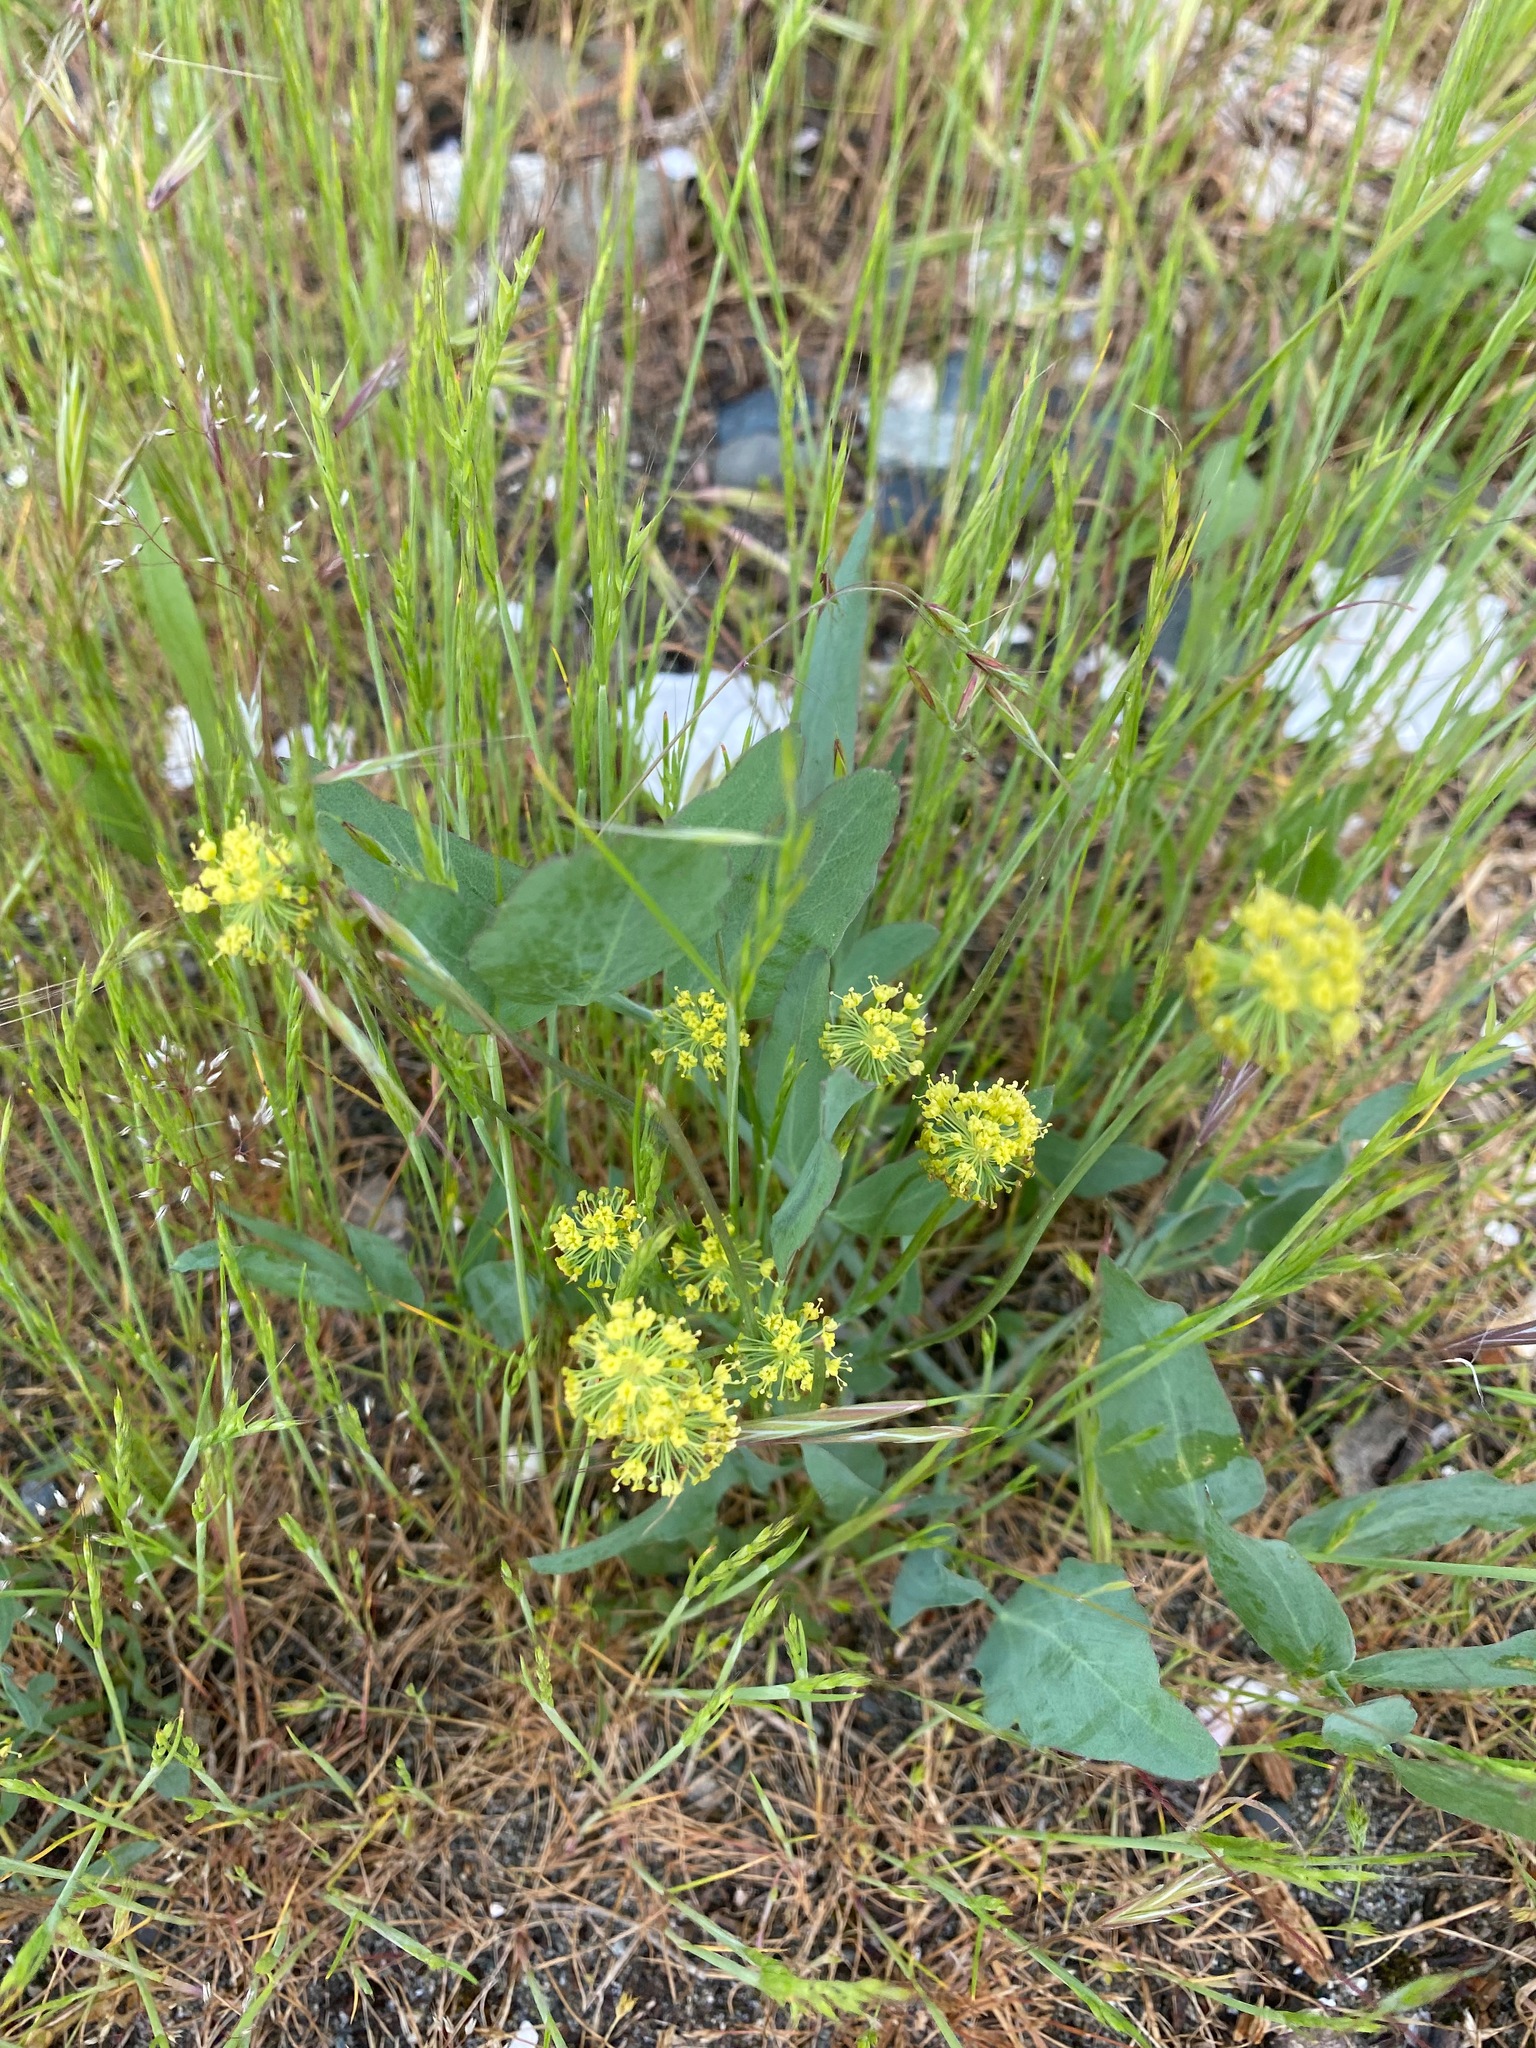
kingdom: Plantae
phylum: Tracheophyta
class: Magnoliopsida
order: Apiales
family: Apiaceae
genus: Lomatium
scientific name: Lomatium nudicaule
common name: Pestle lomatium
